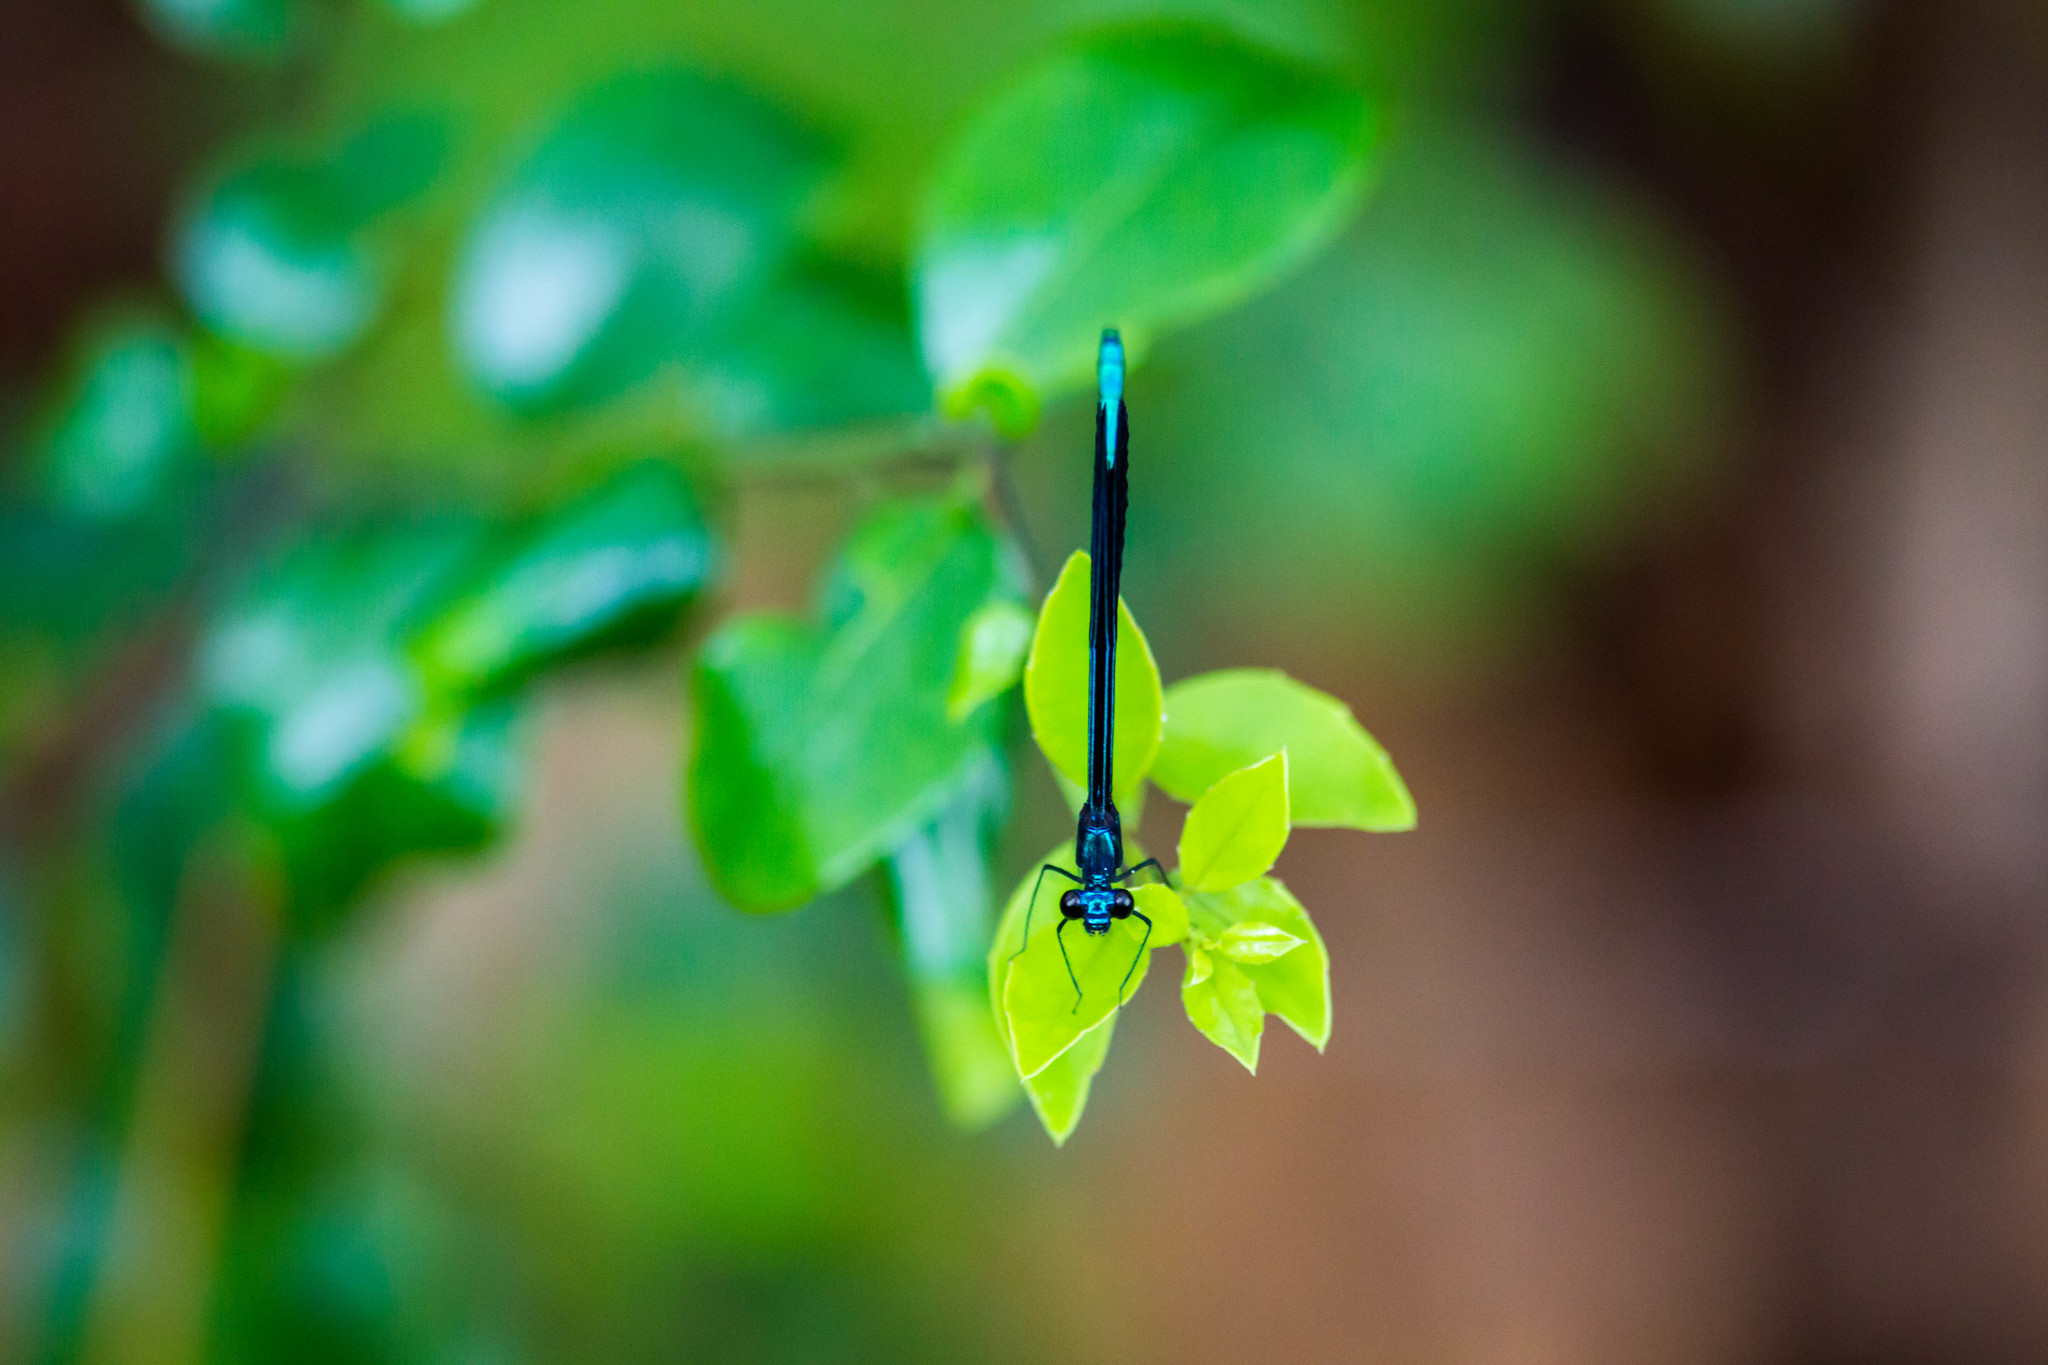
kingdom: Animalia
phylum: Arthropoda
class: Insecta
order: Odonata
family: Calopterygidae
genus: Calopteryx
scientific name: Calopteryx maculata
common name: Ebony jewelwing
